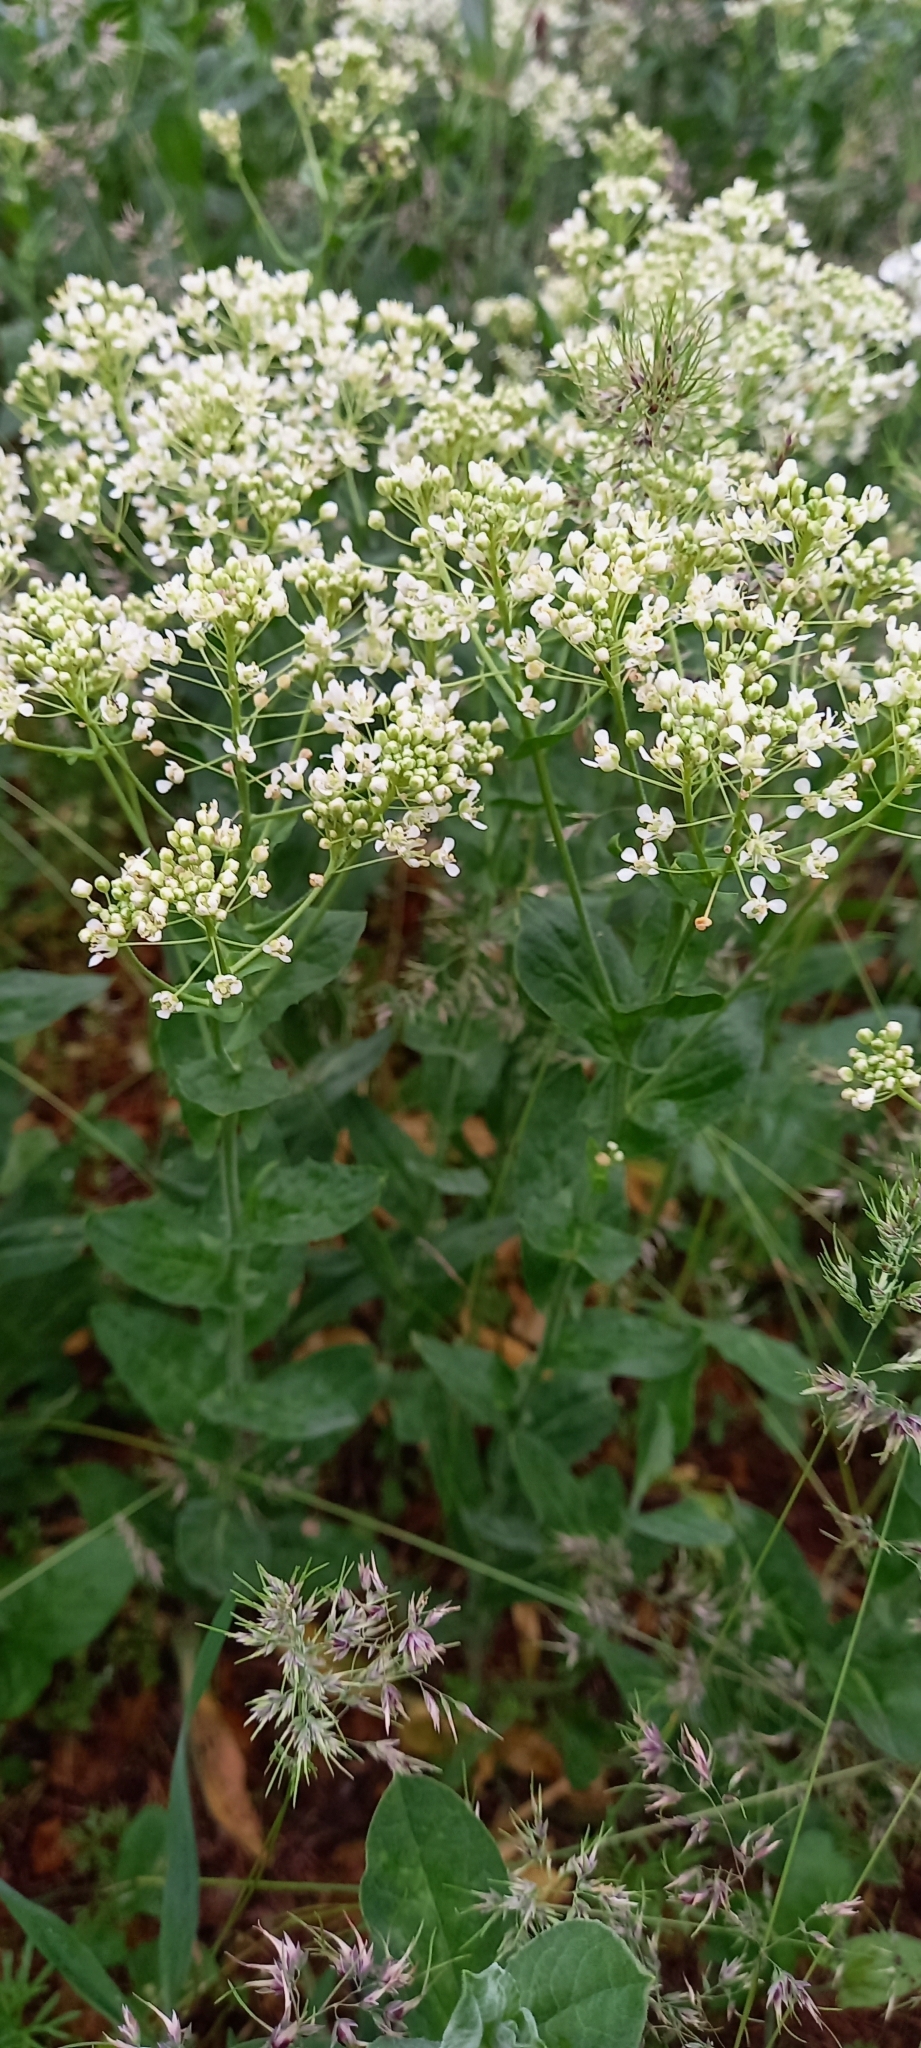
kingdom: Plantae
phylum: Tracheophyta
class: Magnoliopsida
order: Brassicales
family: Brassicaceae
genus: Lepidium
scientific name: Lepidium draba
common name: Hoary cress
